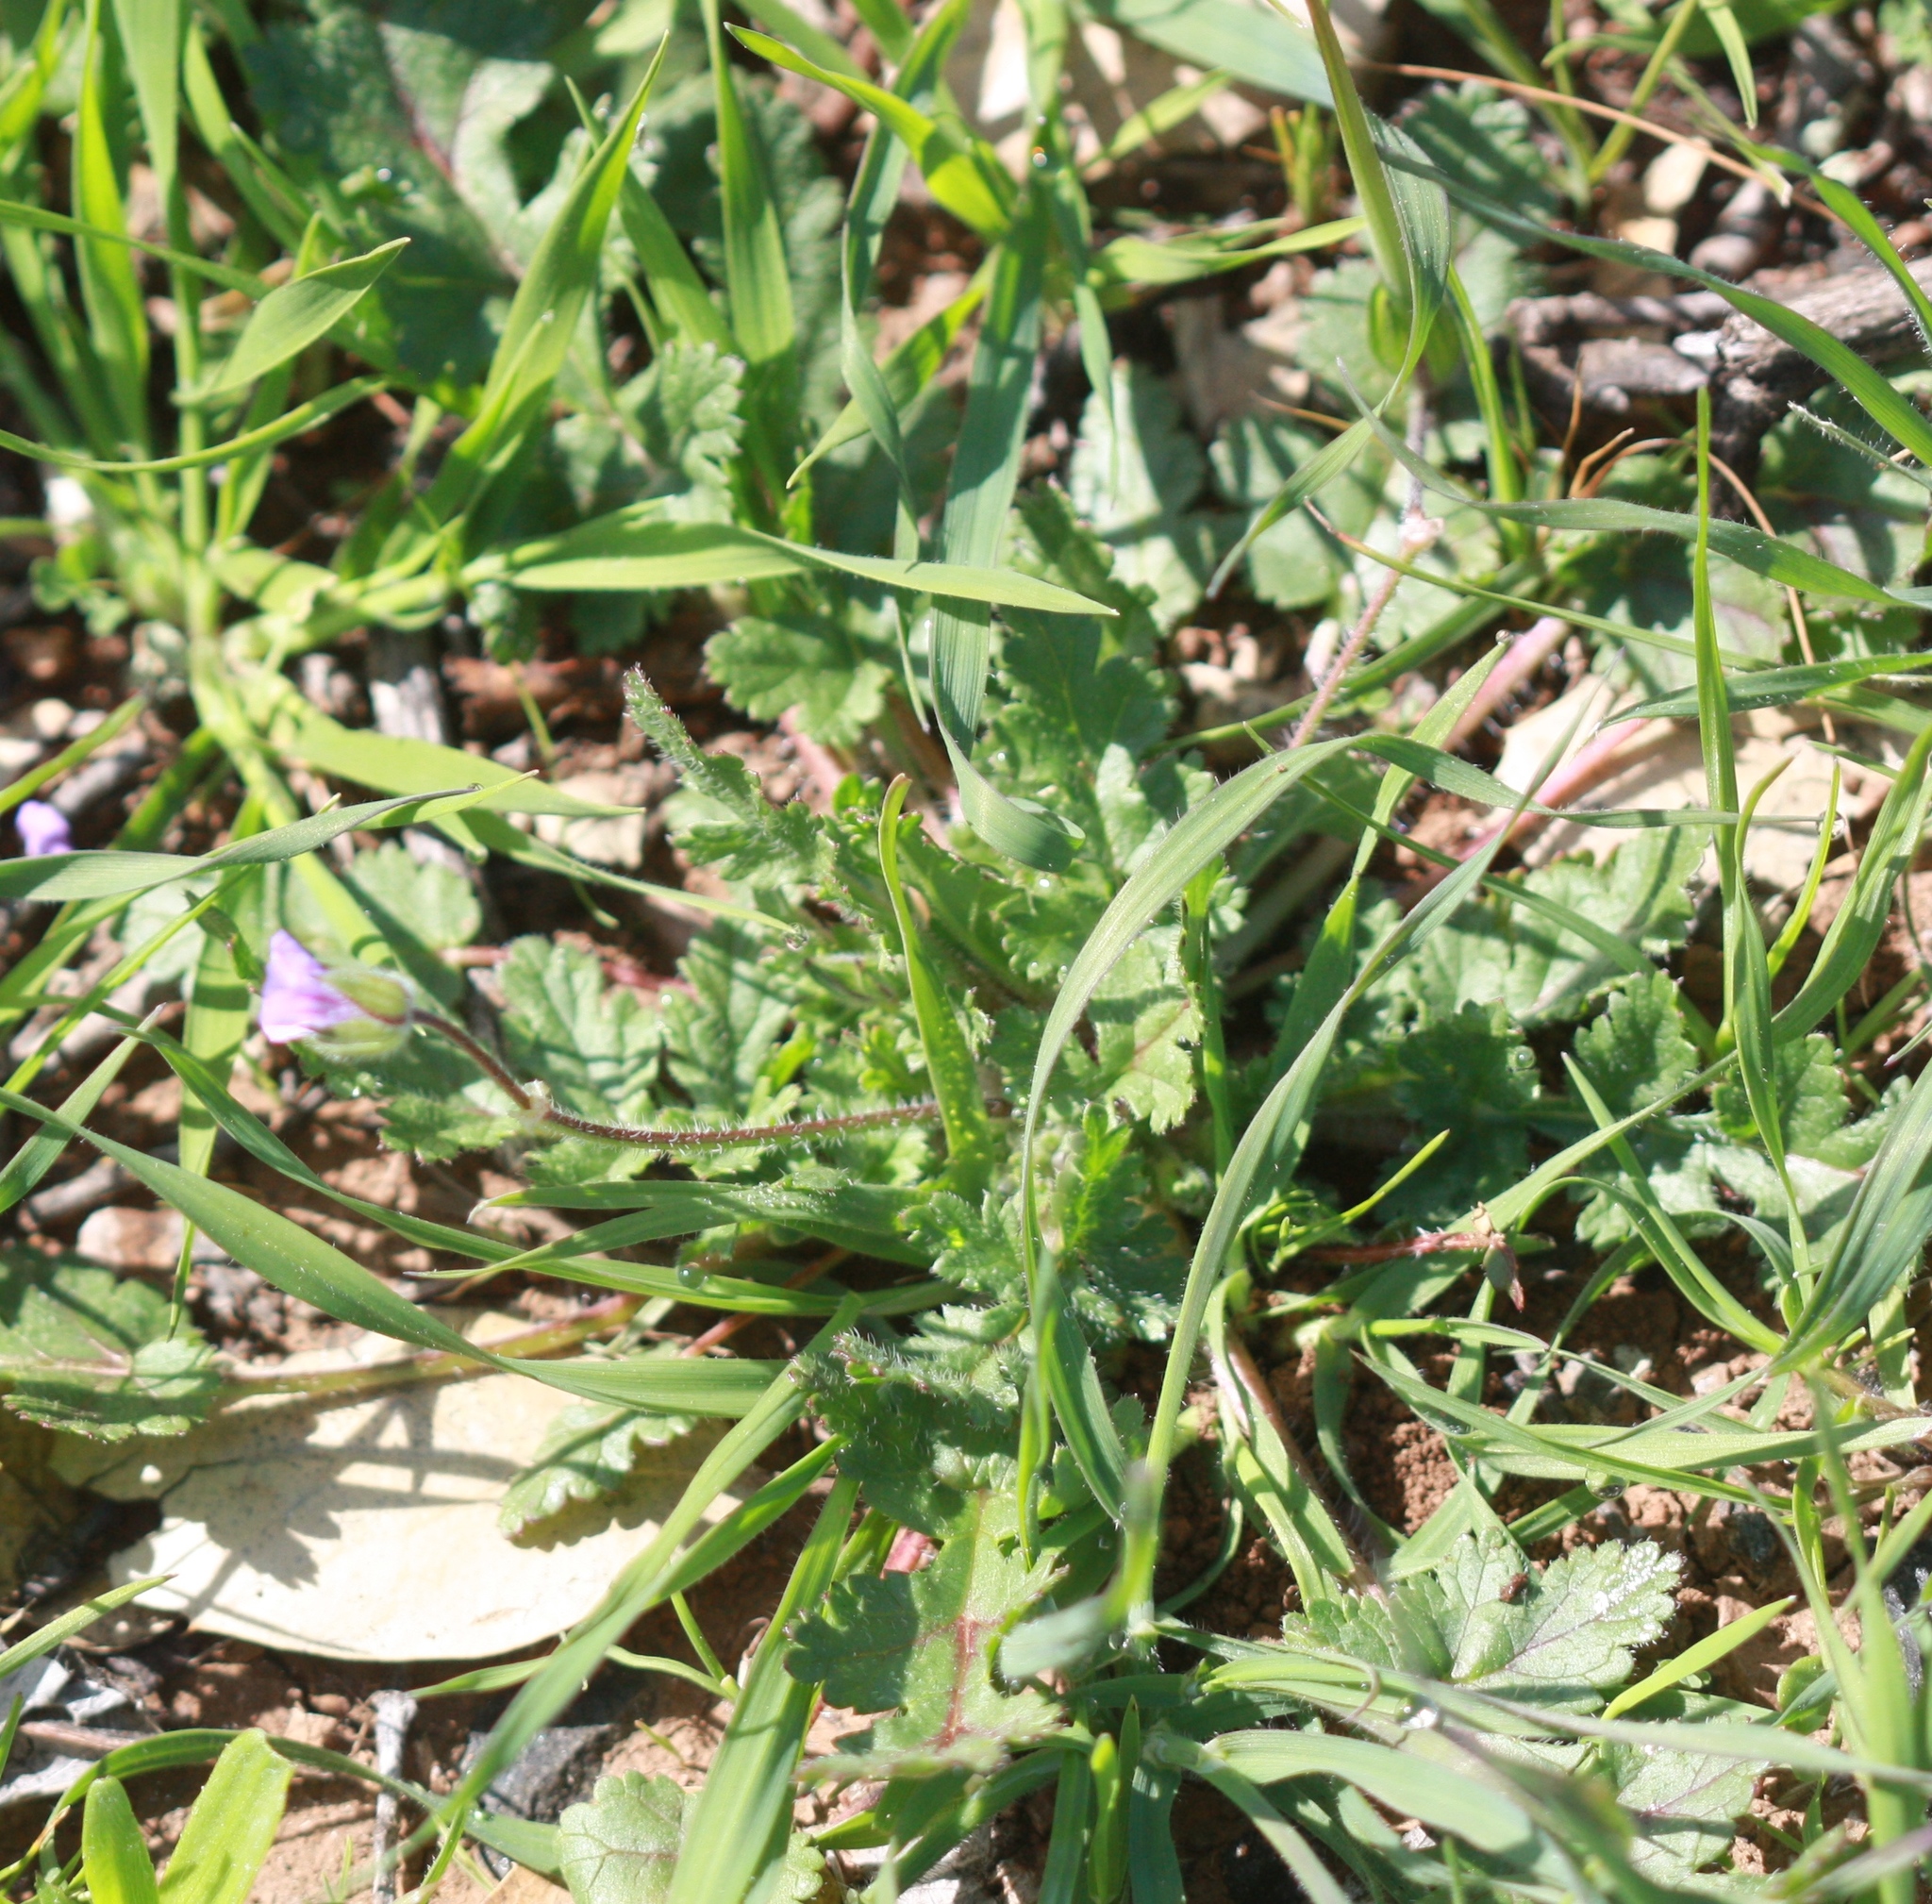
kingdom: Plantae
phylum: Tracheophyta
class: Magnoliopsida
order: Geraniales
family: Geraniaceae
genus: Erodium
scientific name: Erodium botrys
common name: Mediterranean stork's-bill
